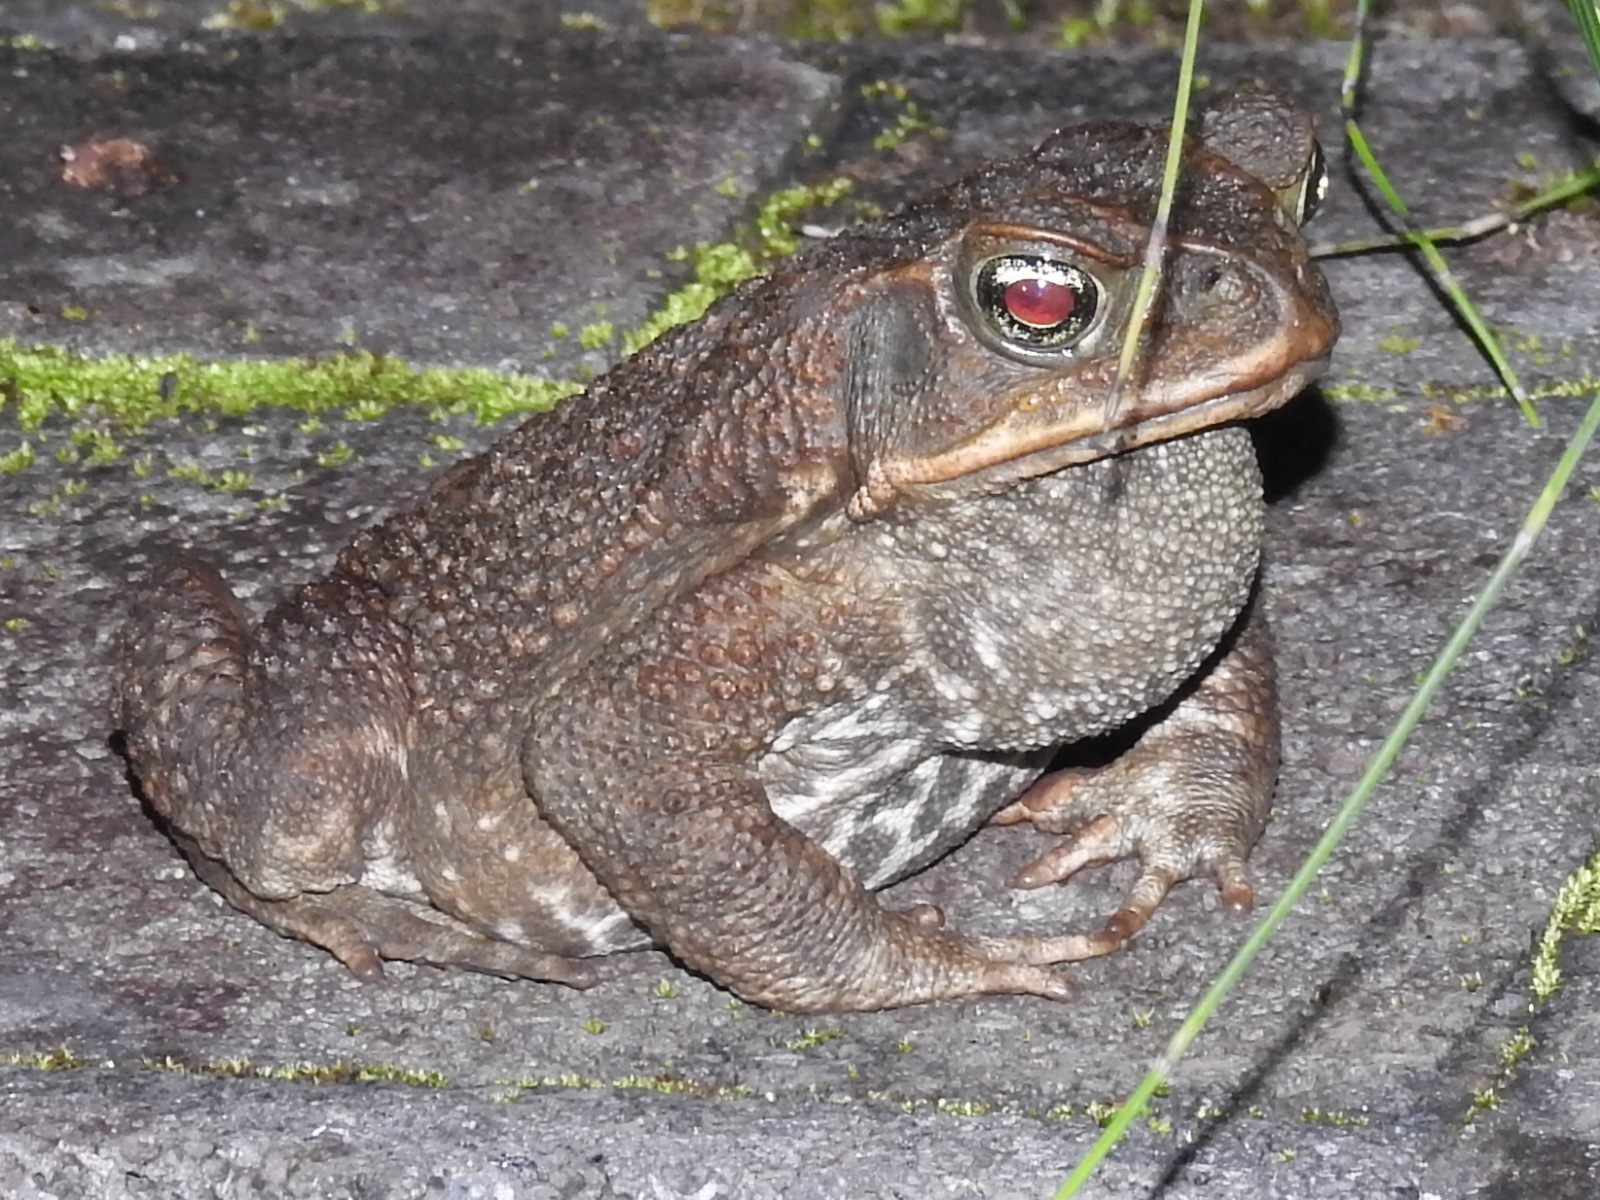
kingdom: Animalia
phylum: Chordata
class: Amphibia
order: Anura
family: Bufonidae
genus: Rhinella
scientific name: Rhinella horribilis
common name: Mesoamerican cane toad
